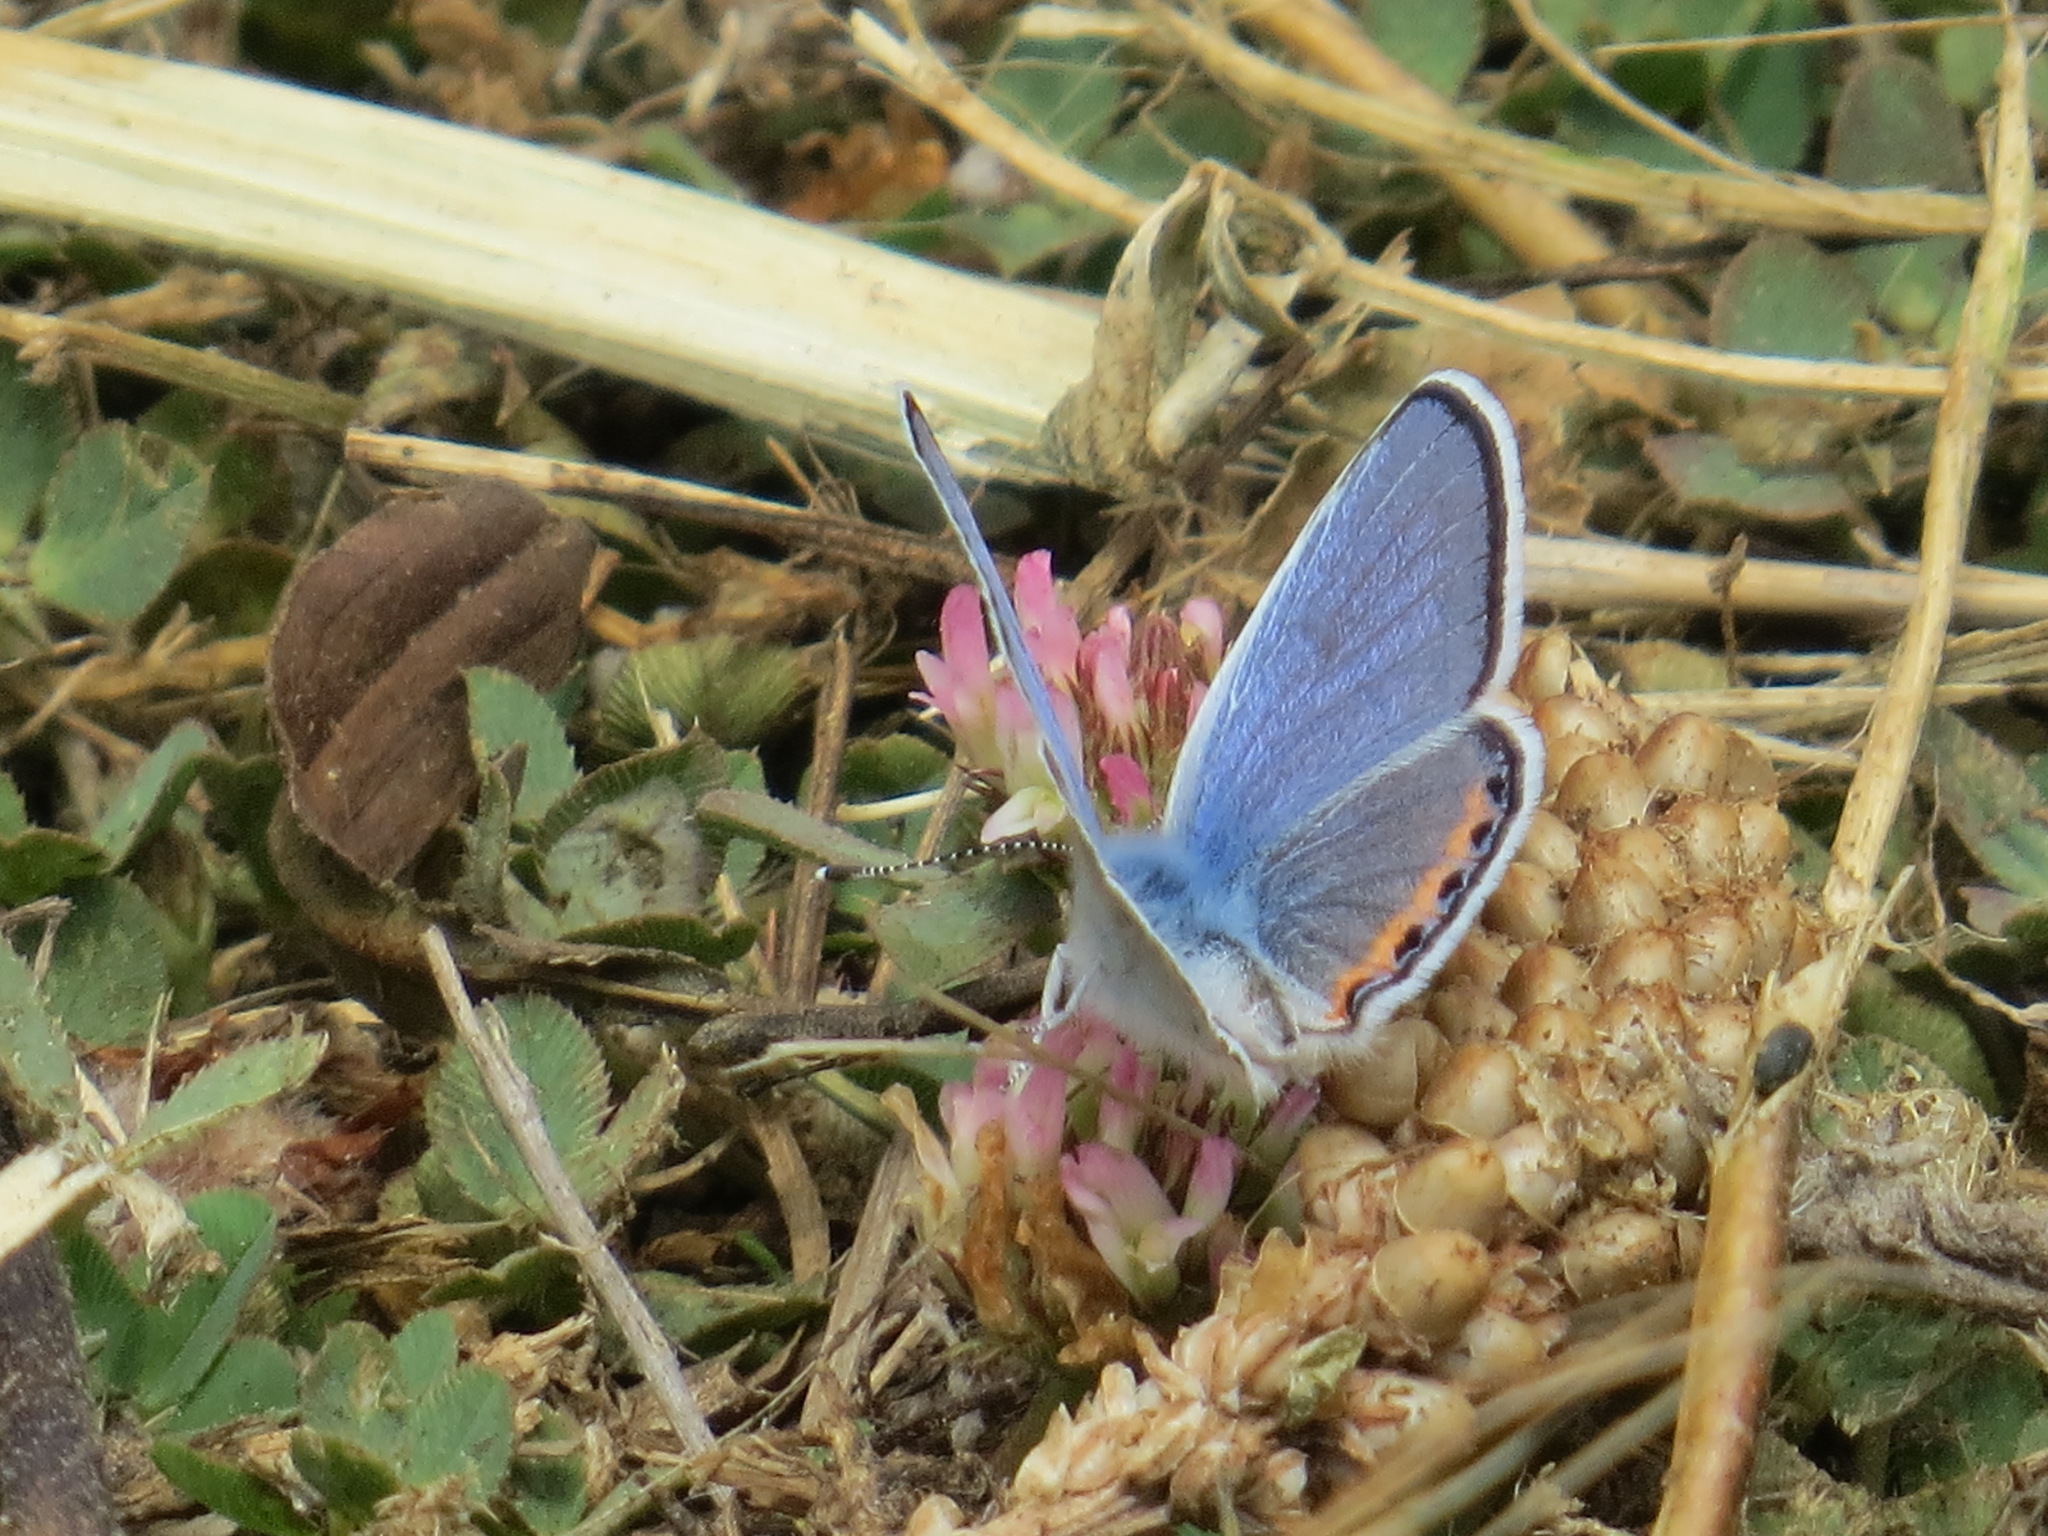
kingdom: Animalia
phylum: Arthropoda
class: Insecta
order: Lepidoptera
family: Lycaenidae
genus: Icaricia
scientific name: Icaricia acmon
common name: Acmon blue
